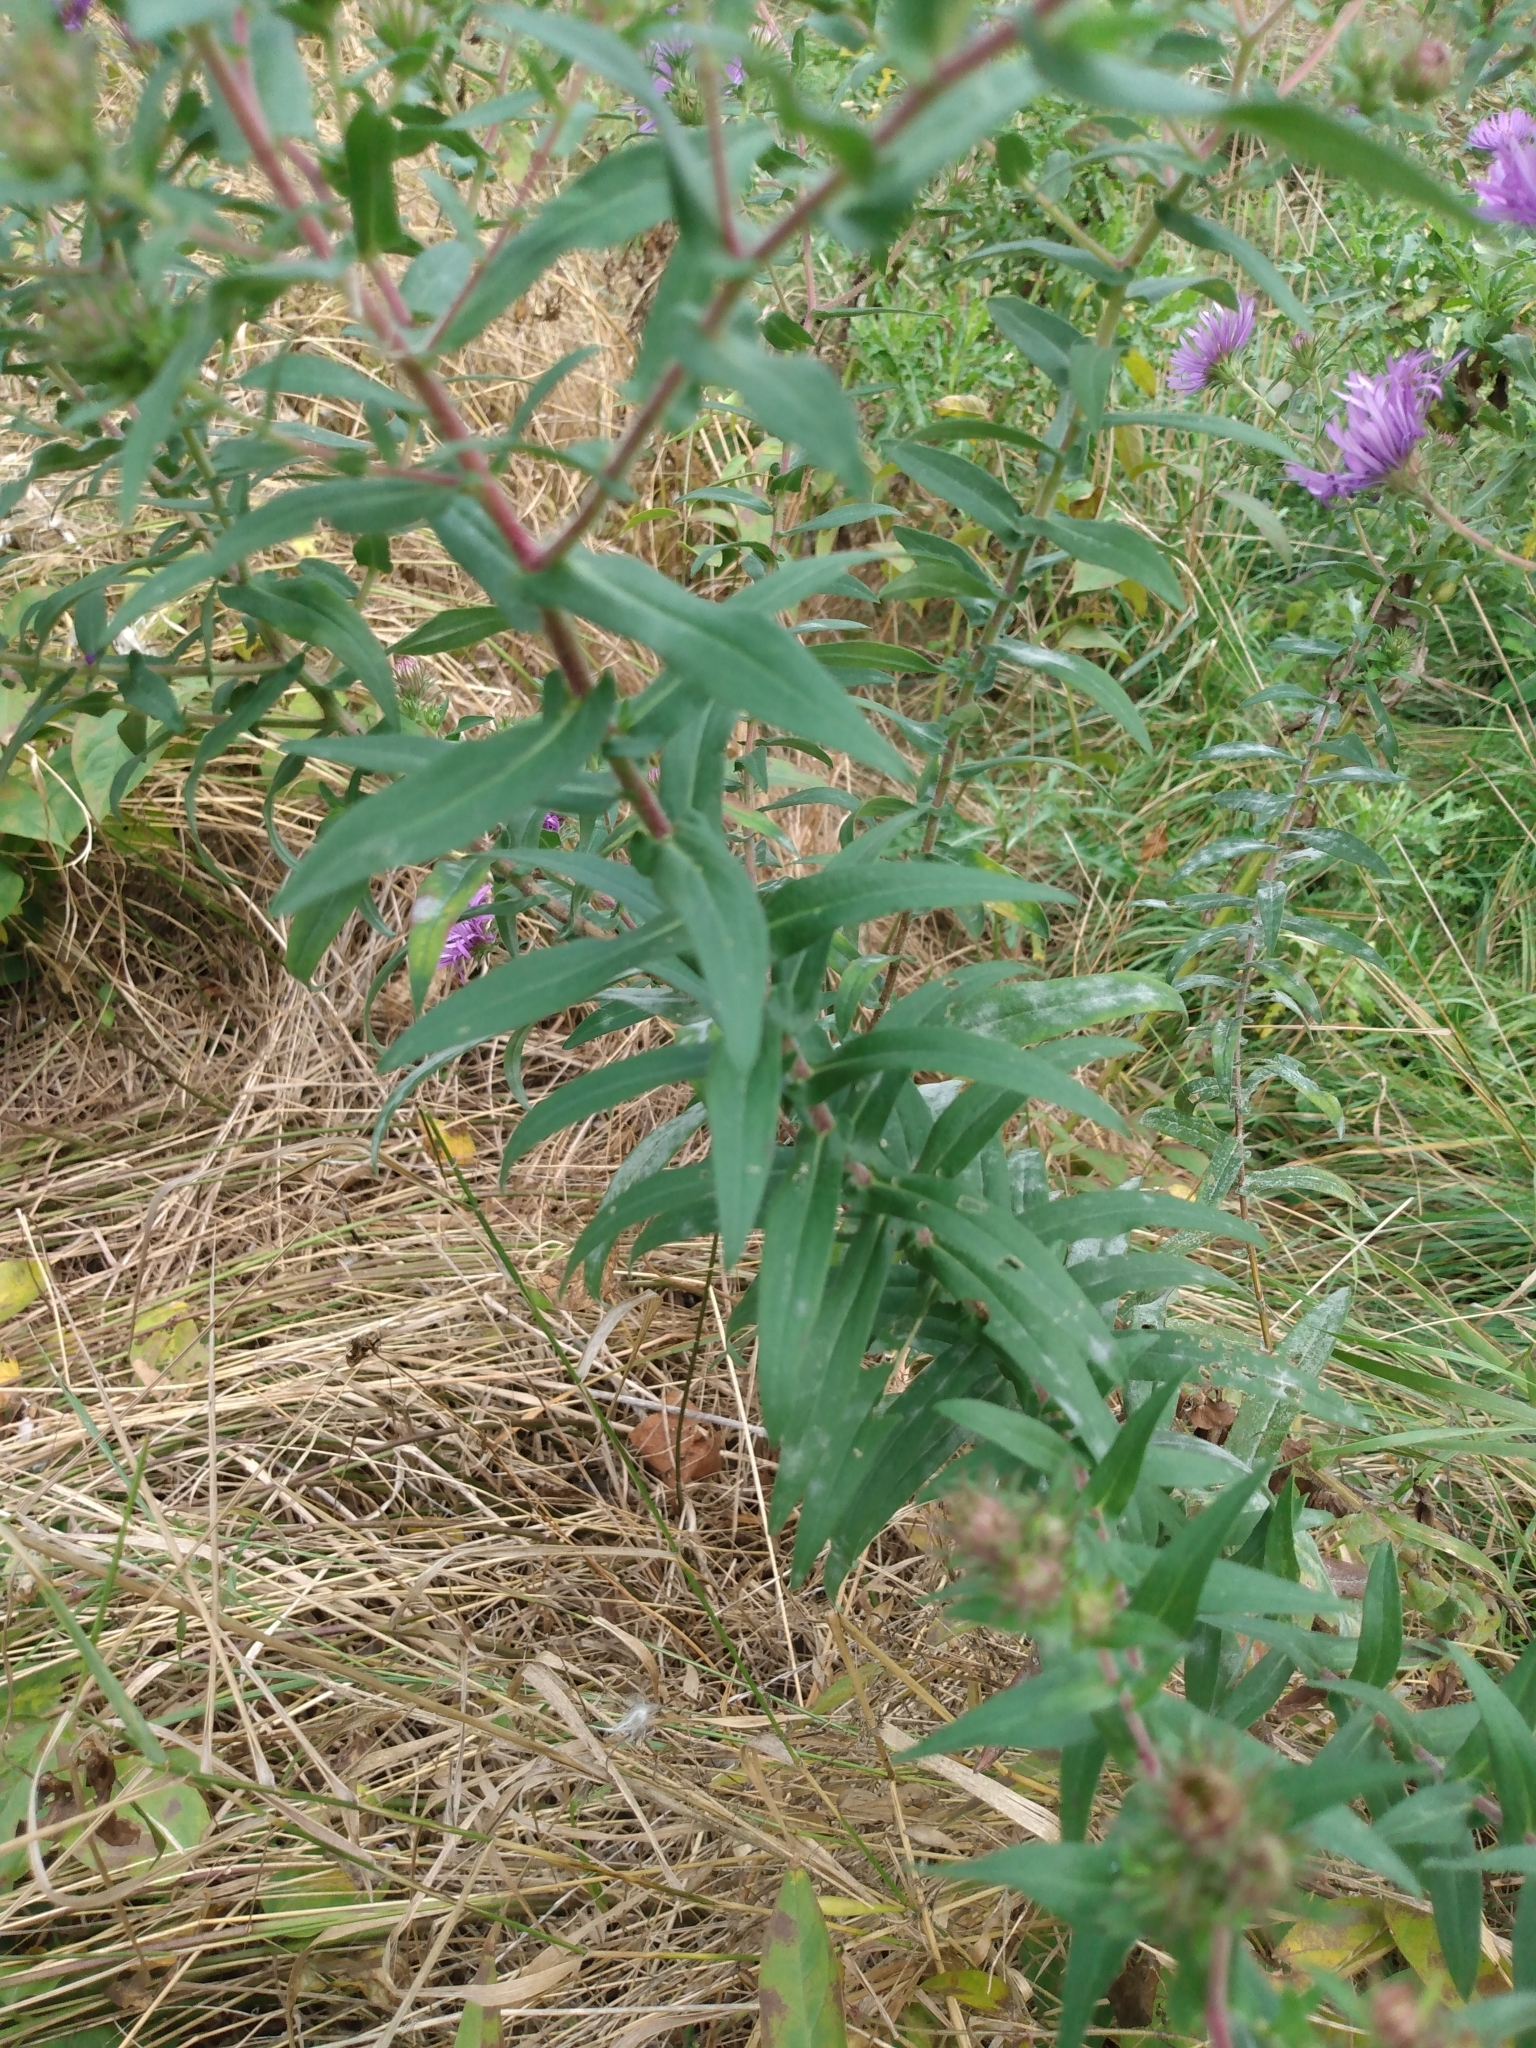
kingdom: Plantae
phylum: Tracheophyta
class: Magnoliopsida
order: Asterales
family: Asteraceae
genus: Symphyotrichum
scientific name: Symphyotrichum novae-angliae
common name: Michaelmas daisy
